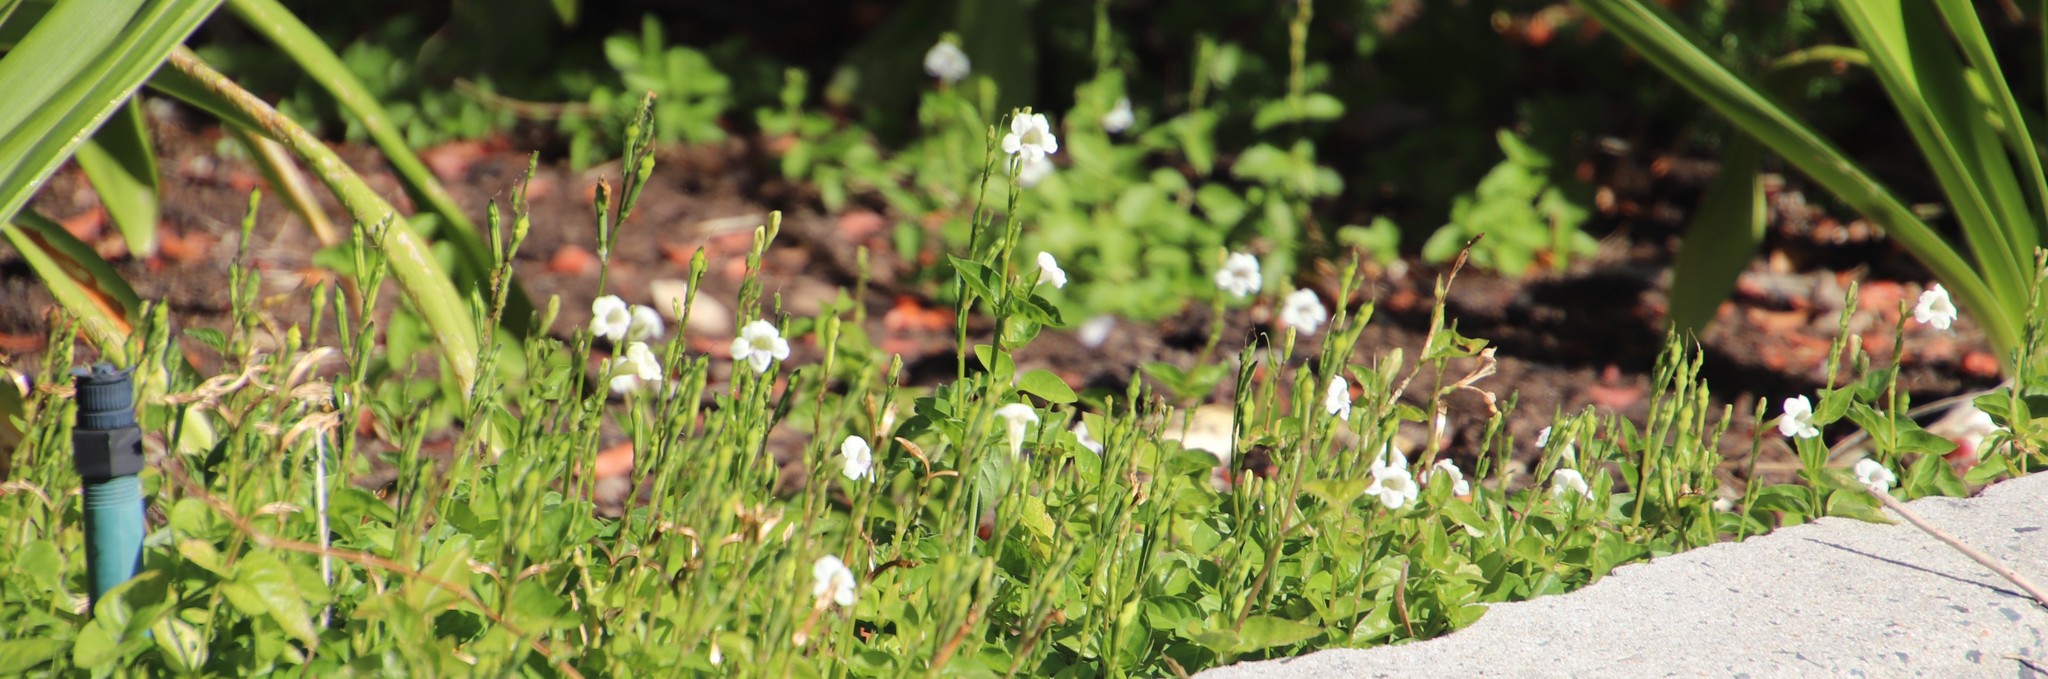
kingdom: Plantae
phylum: Tracheophyta
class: Magnoliopsida
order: Lamiales
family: Acanthaceae
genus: Asystasia
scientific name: Asystasia intrusa
